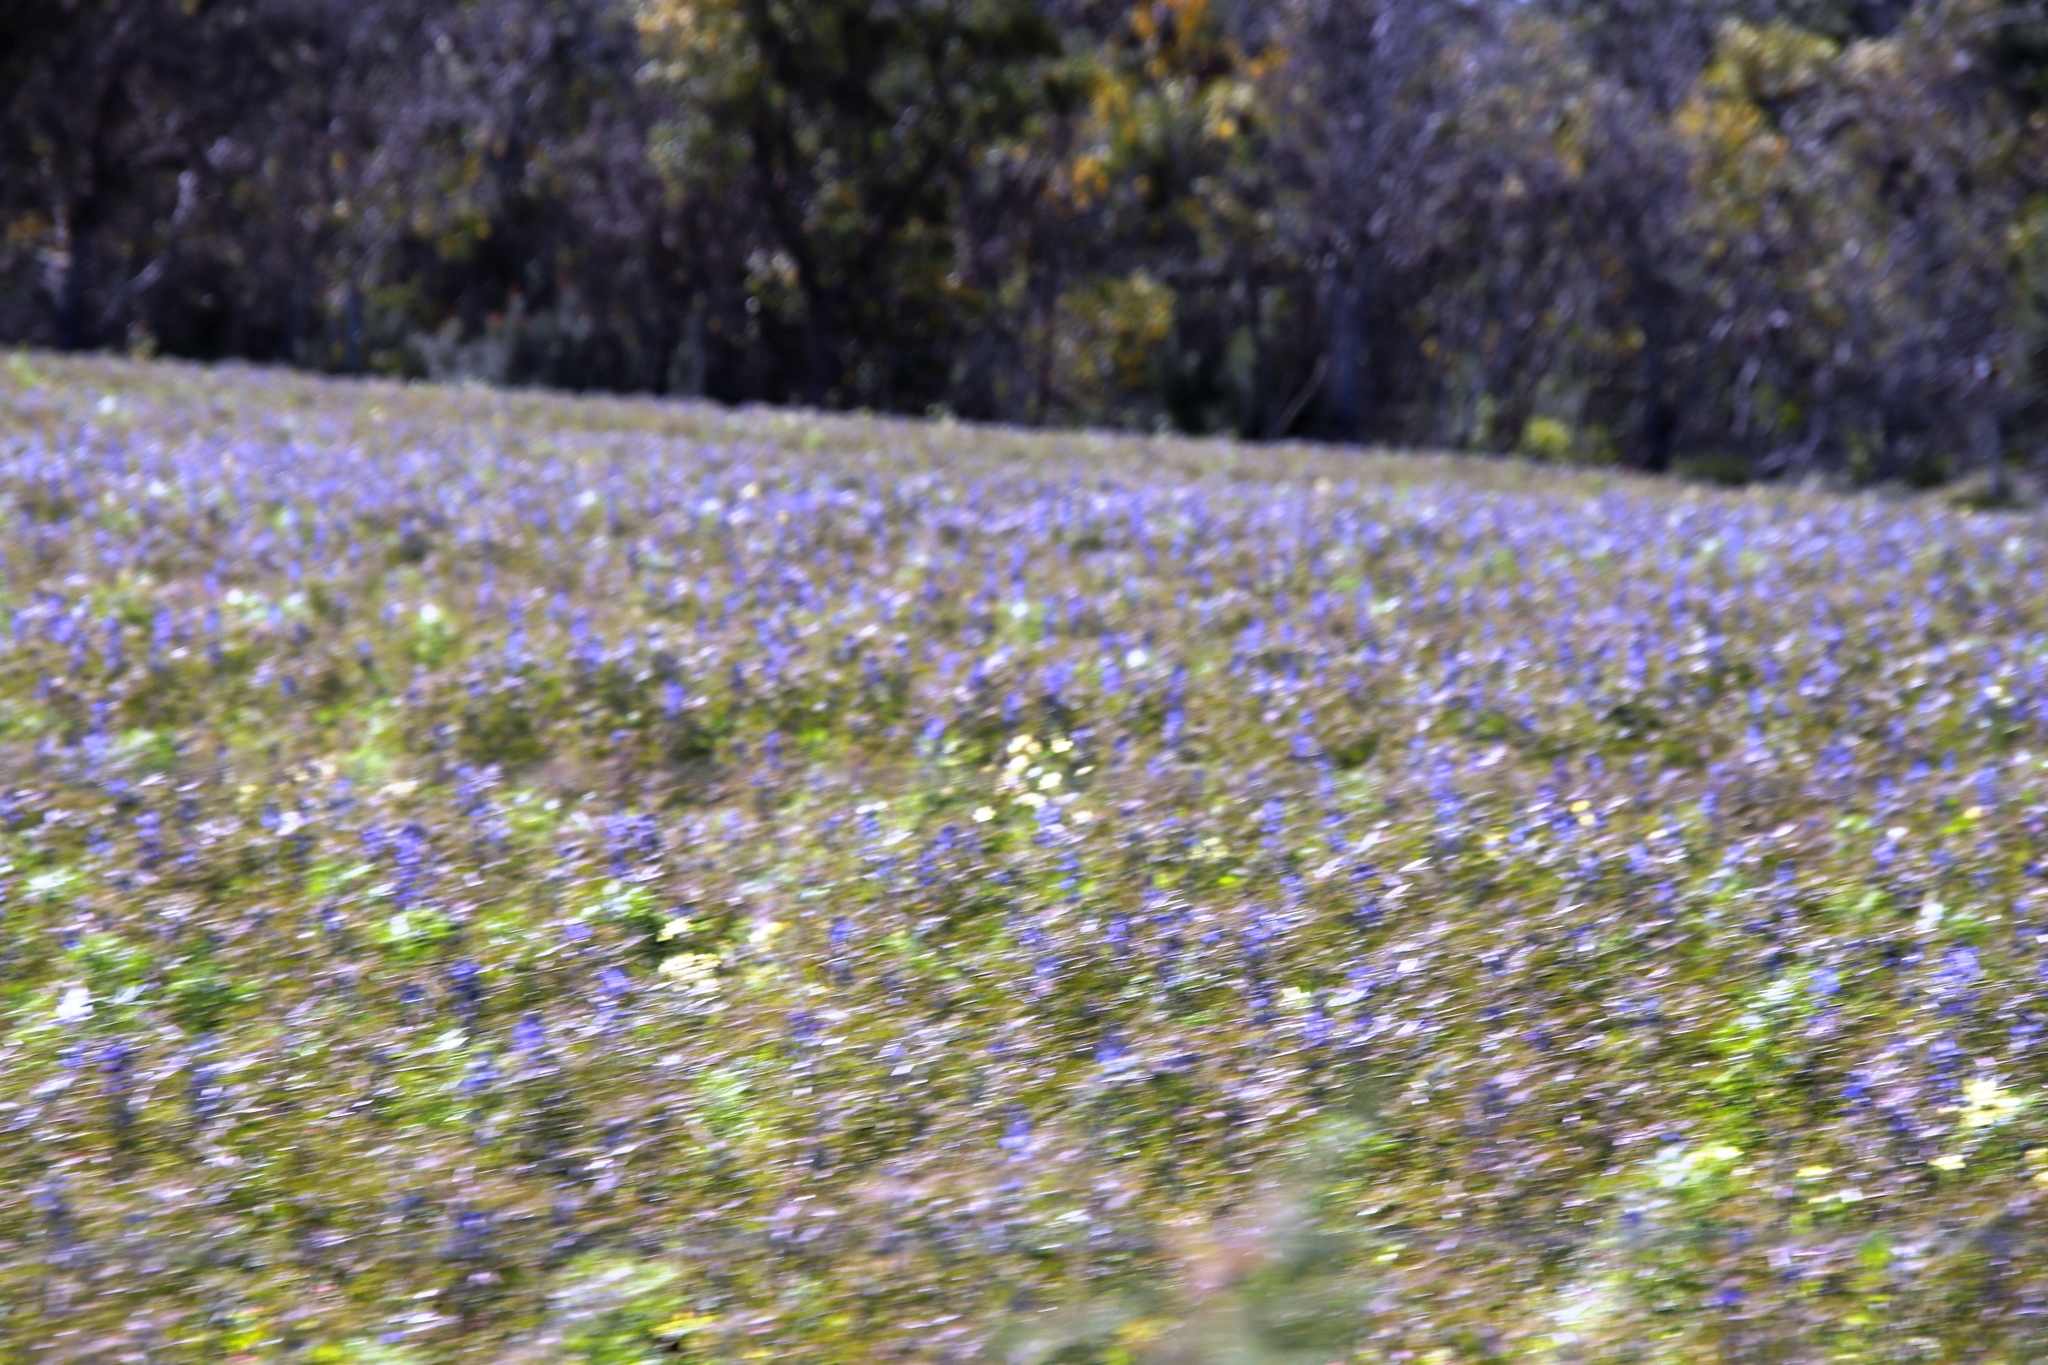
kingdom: Plantae
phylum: Tracheophyta
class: Magnoliopsida
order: Fabales
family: Fabaceae
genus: Lupinus
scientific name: Lupinus cosentinii
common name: Hairy blue lupin
